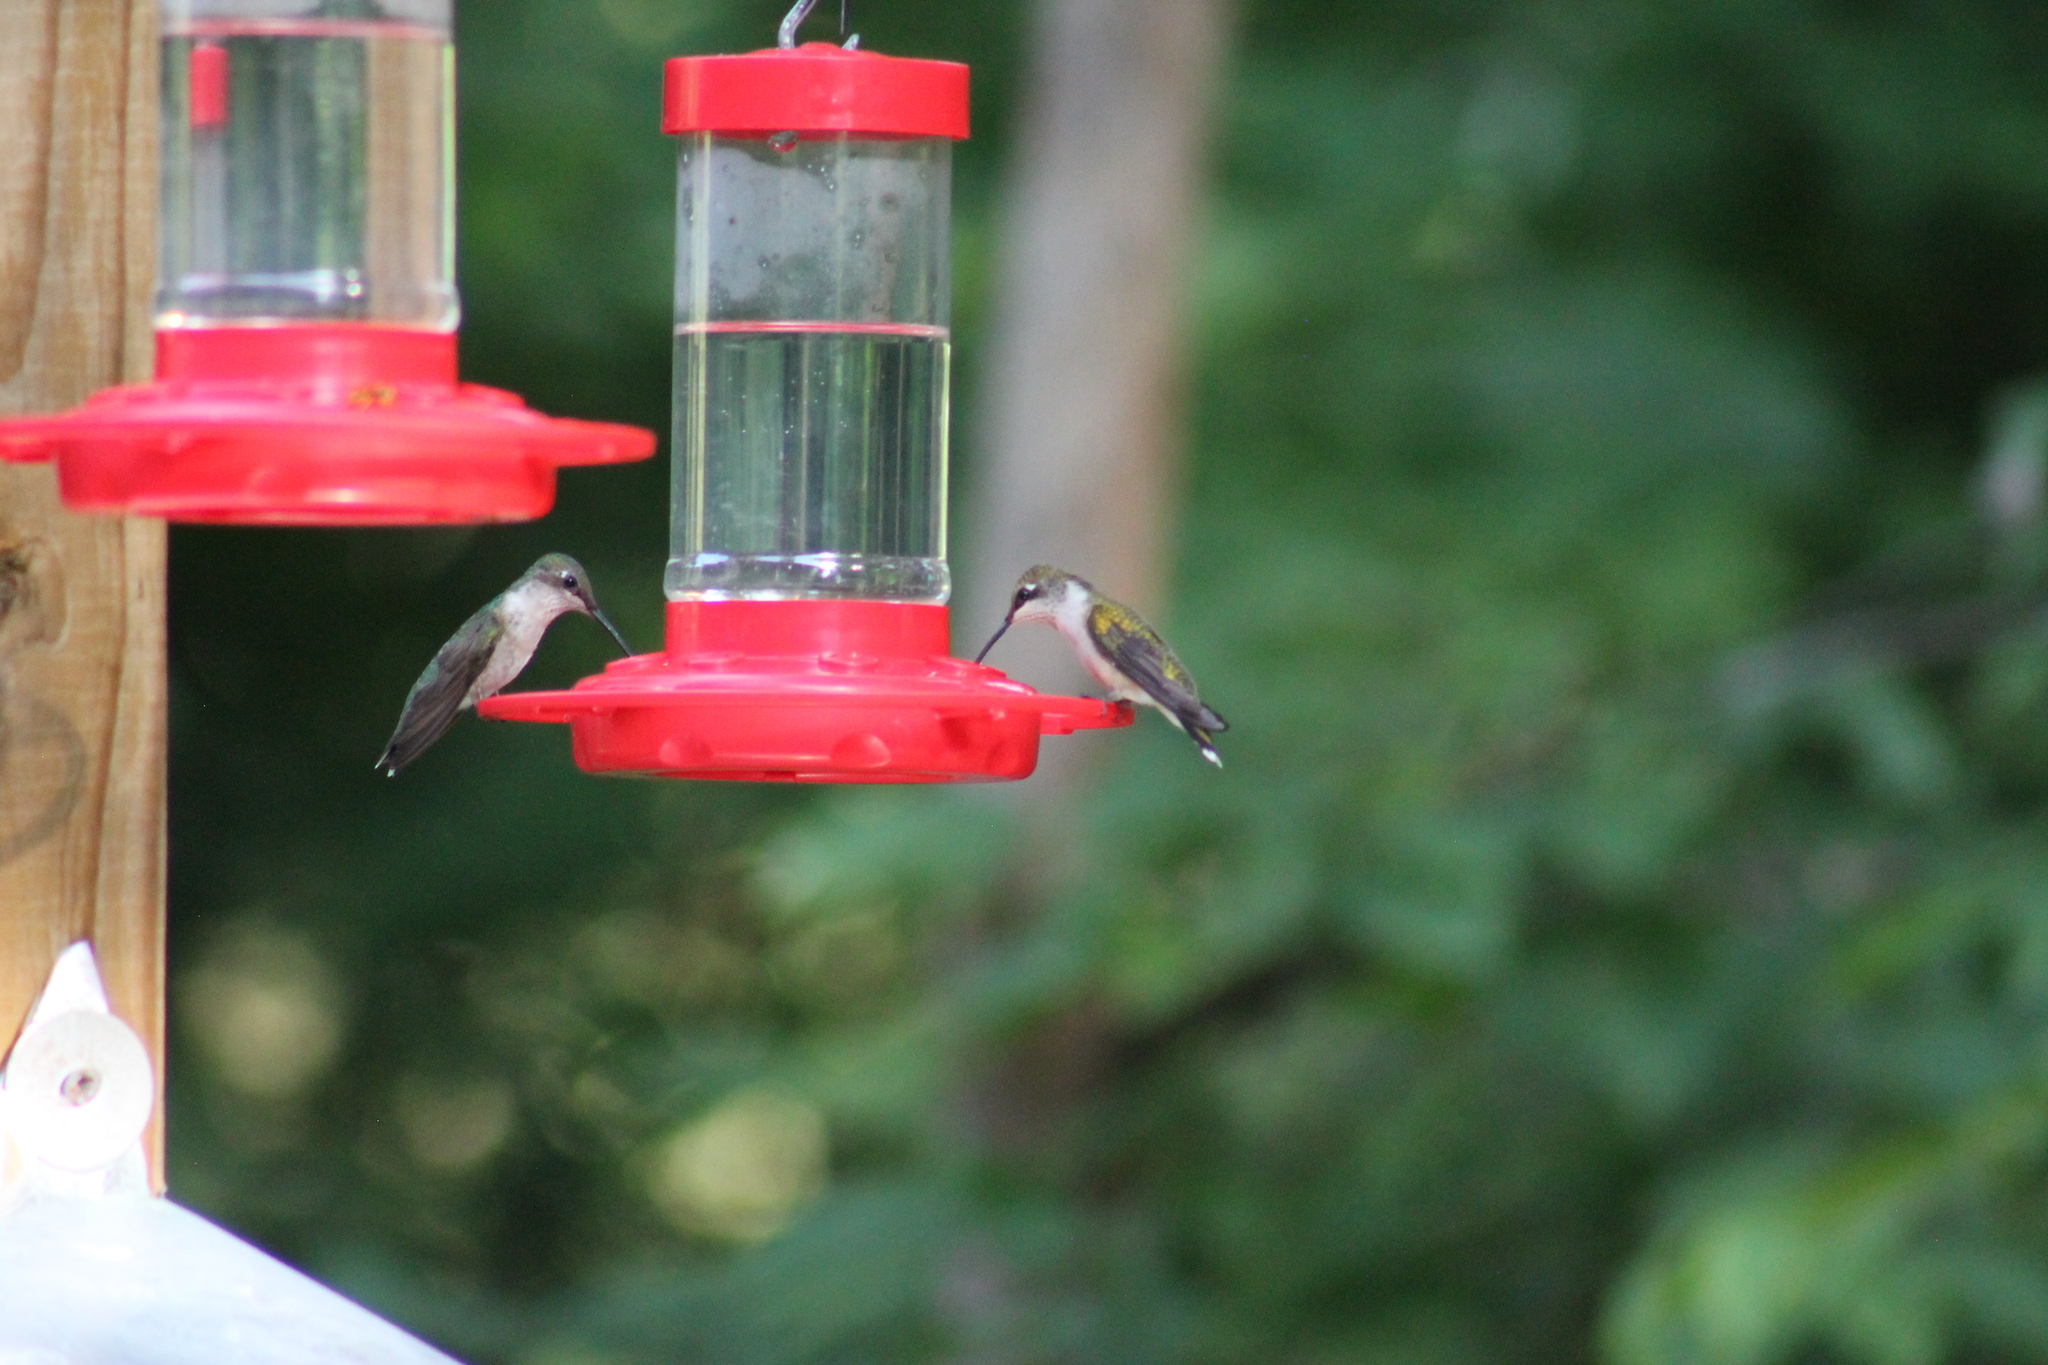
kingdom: Animalia
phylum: Chordata
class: Aves
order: Apodiformes
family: Trochilidae
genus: Archilochus
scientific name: Archilochus colubris
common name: Ruby-throated hummingbird
